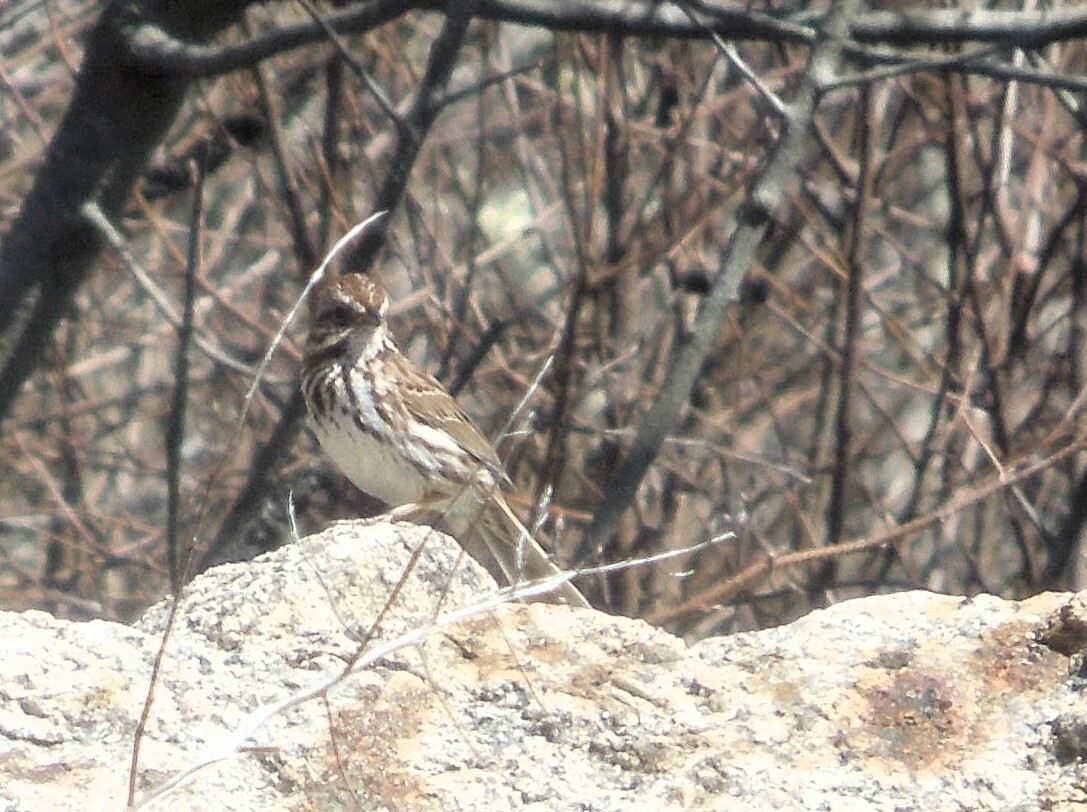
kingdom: Animalia
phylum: Chordata
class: Aves
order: Passeriformes
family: Passerellidae
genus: Melospiza
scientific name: Melospiza melodia
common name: Song sparrow
